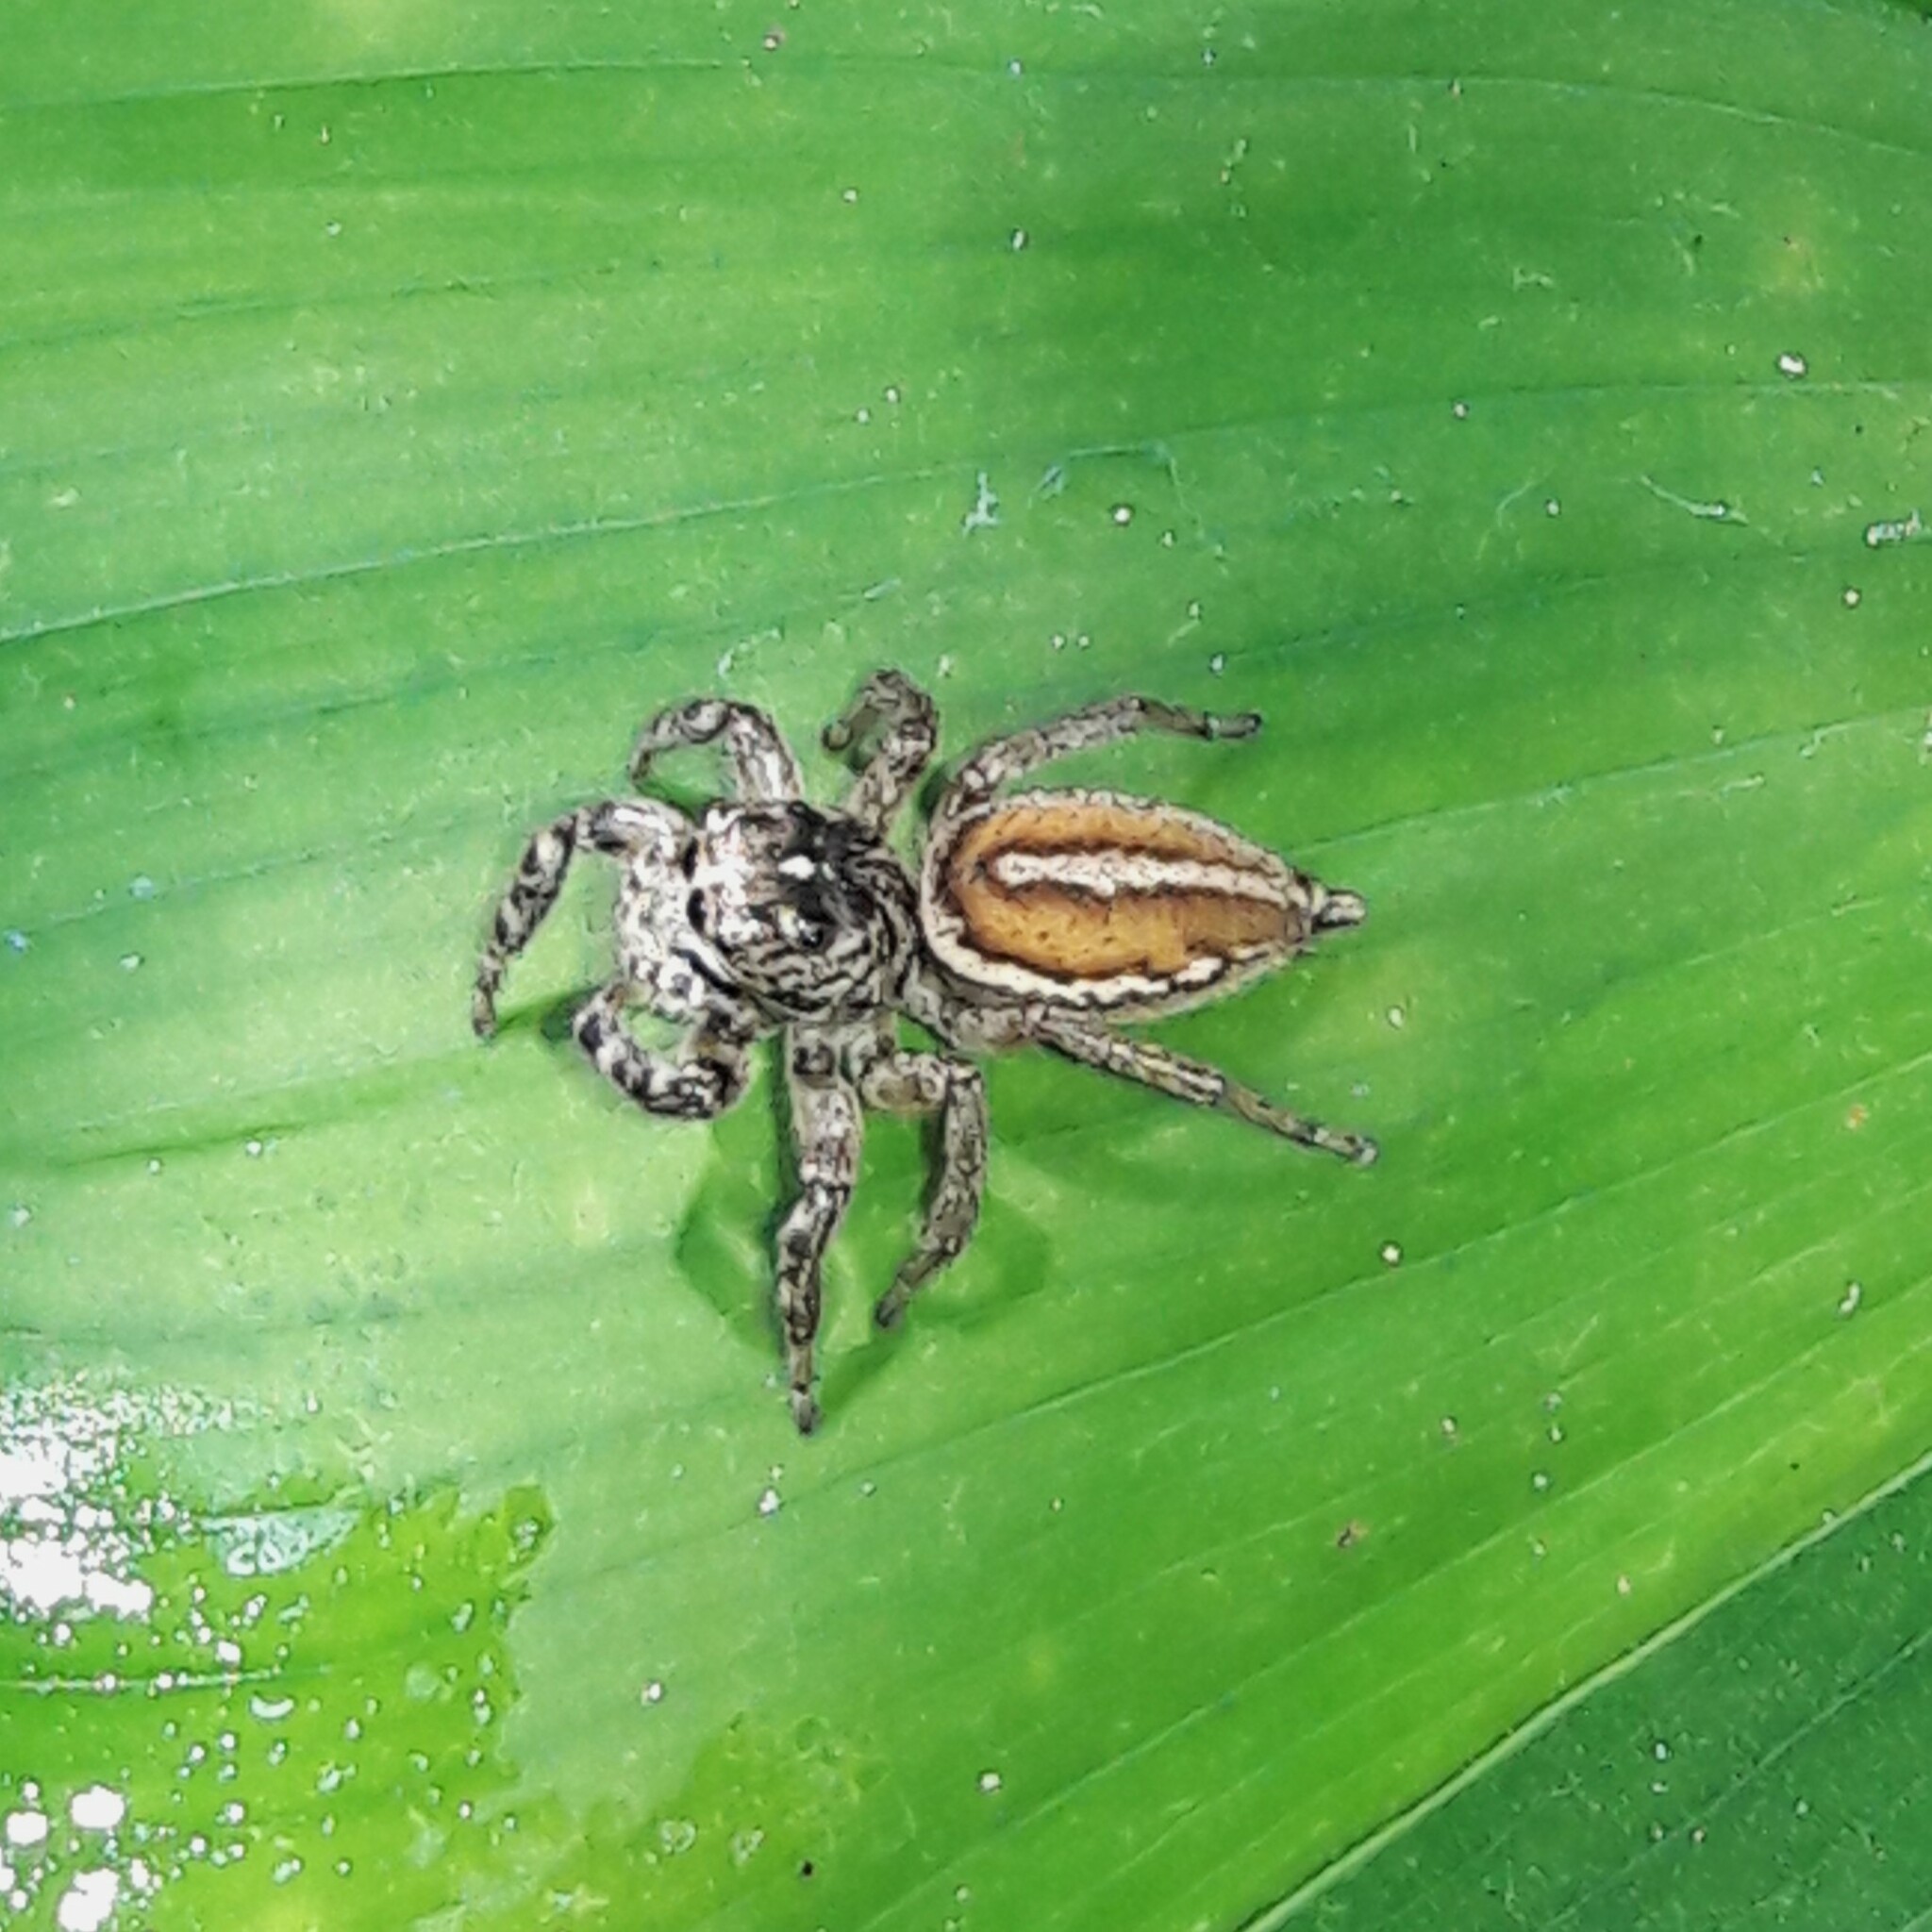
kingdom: Animalia
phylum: Arthropoda
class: Arachnida
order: Araneae
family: Salticidae
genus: Freya
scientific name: Freya nigrotaeniata
